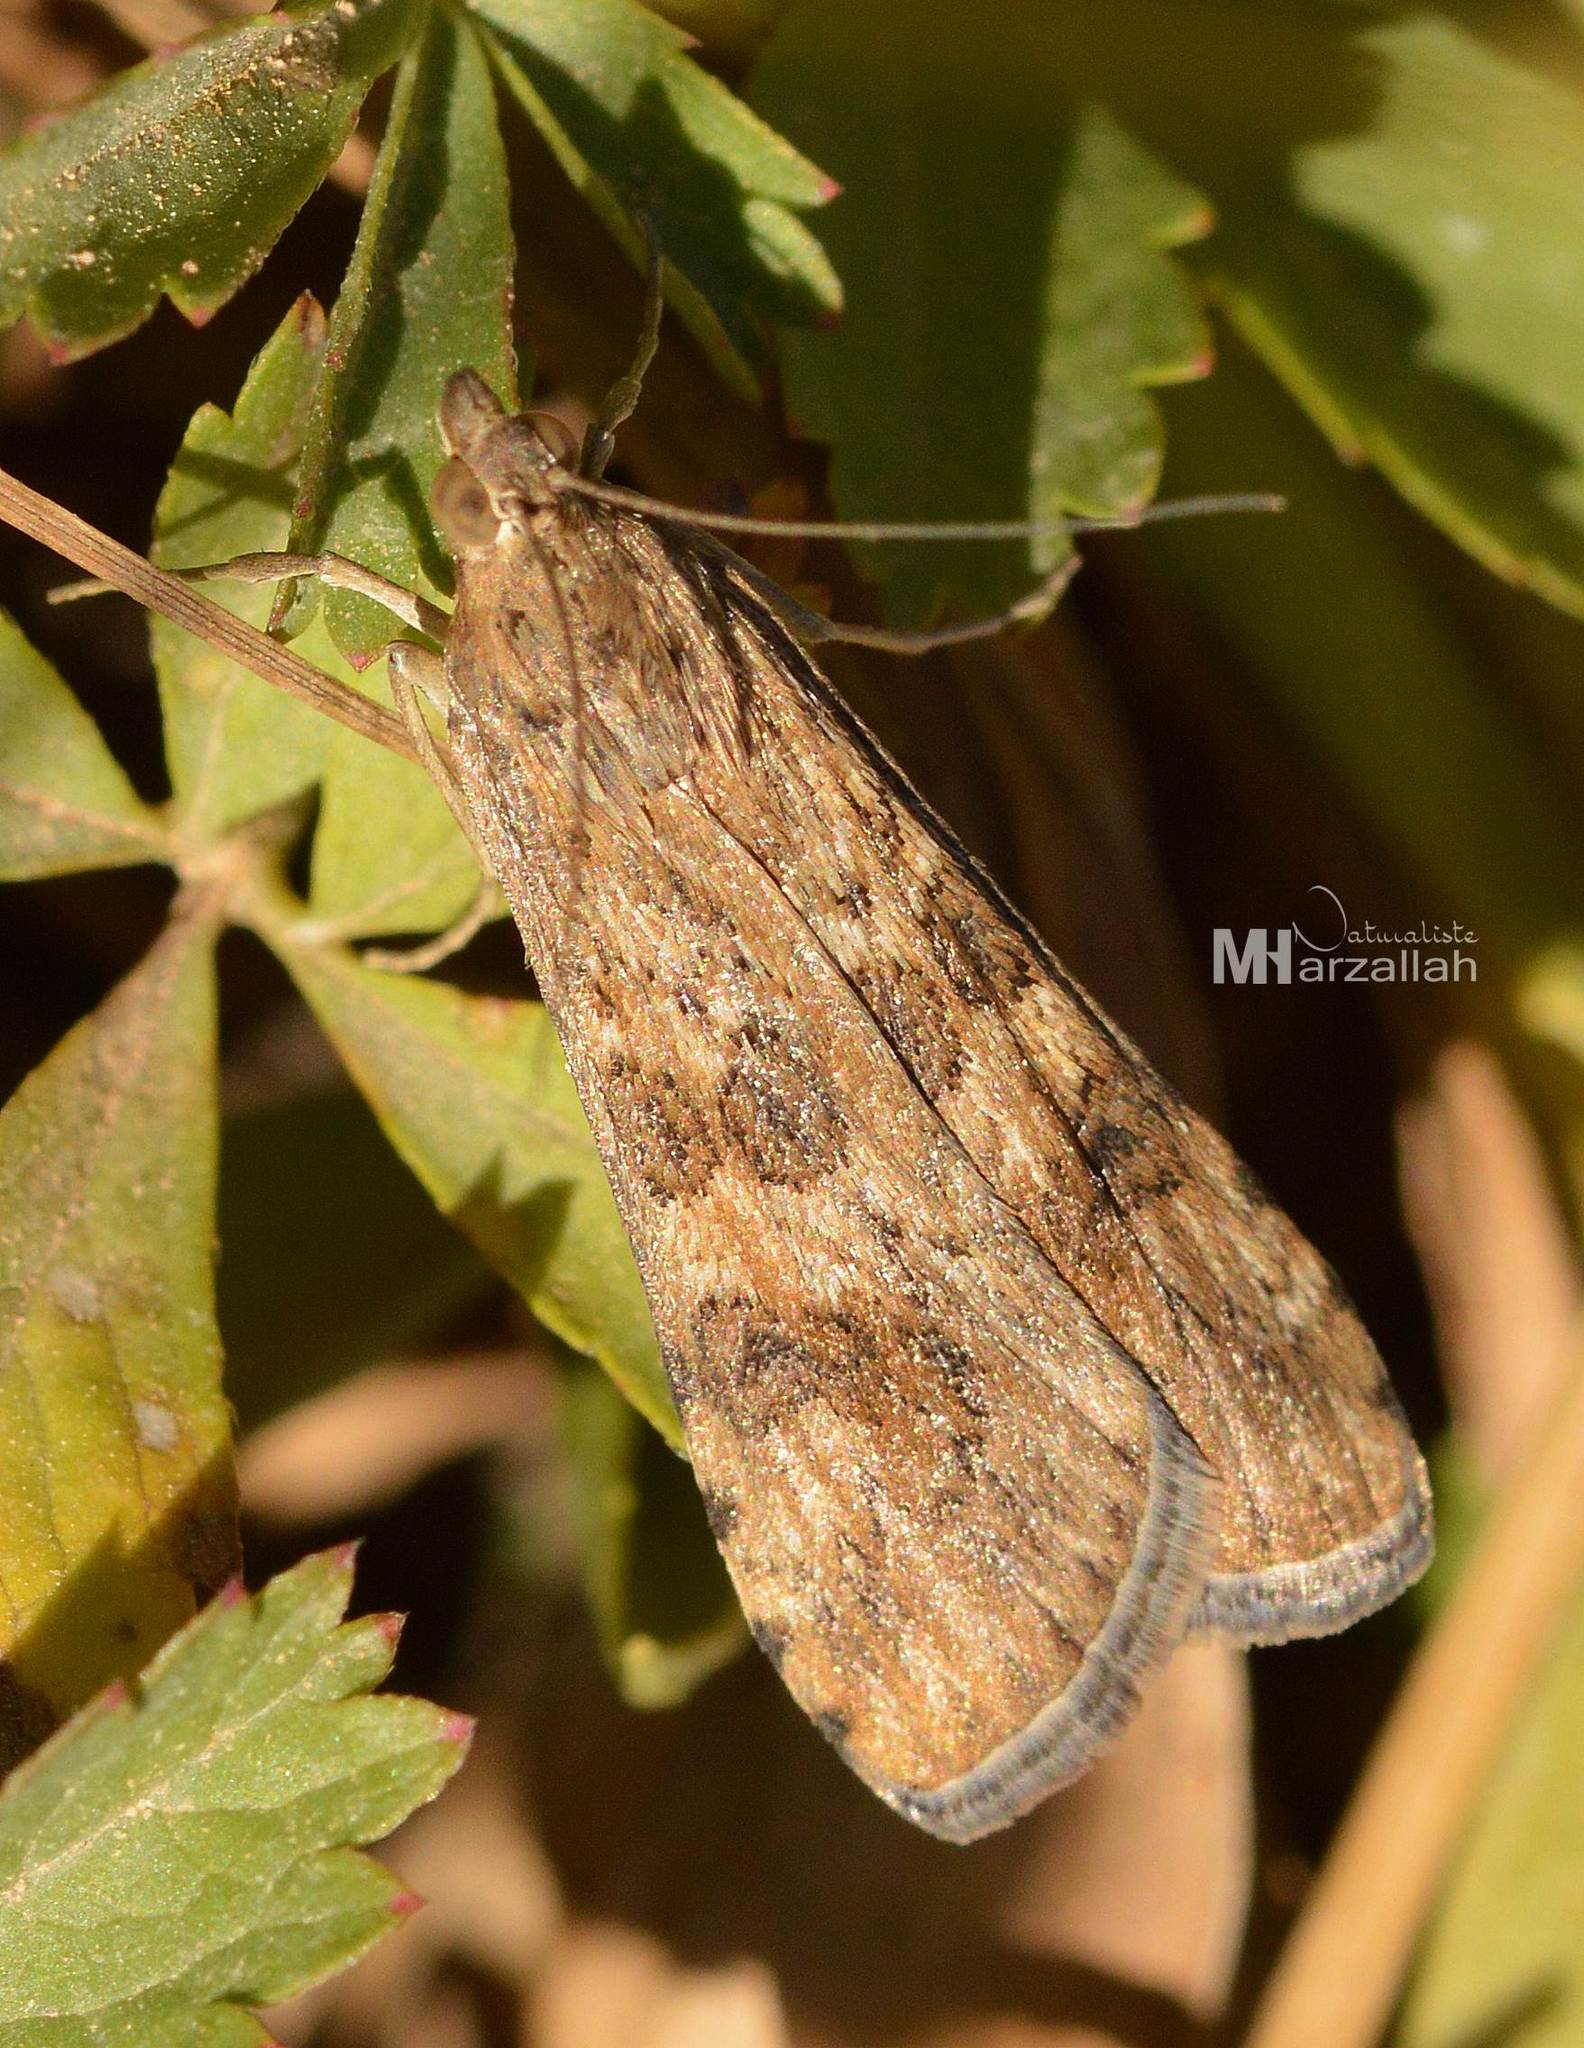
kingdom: Animalia
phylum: Arthropoda
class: Insecta
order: Lepidoptera
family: Crambidae
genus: Nomophila
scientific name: Nomophila noctuella
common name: Rush veneer
